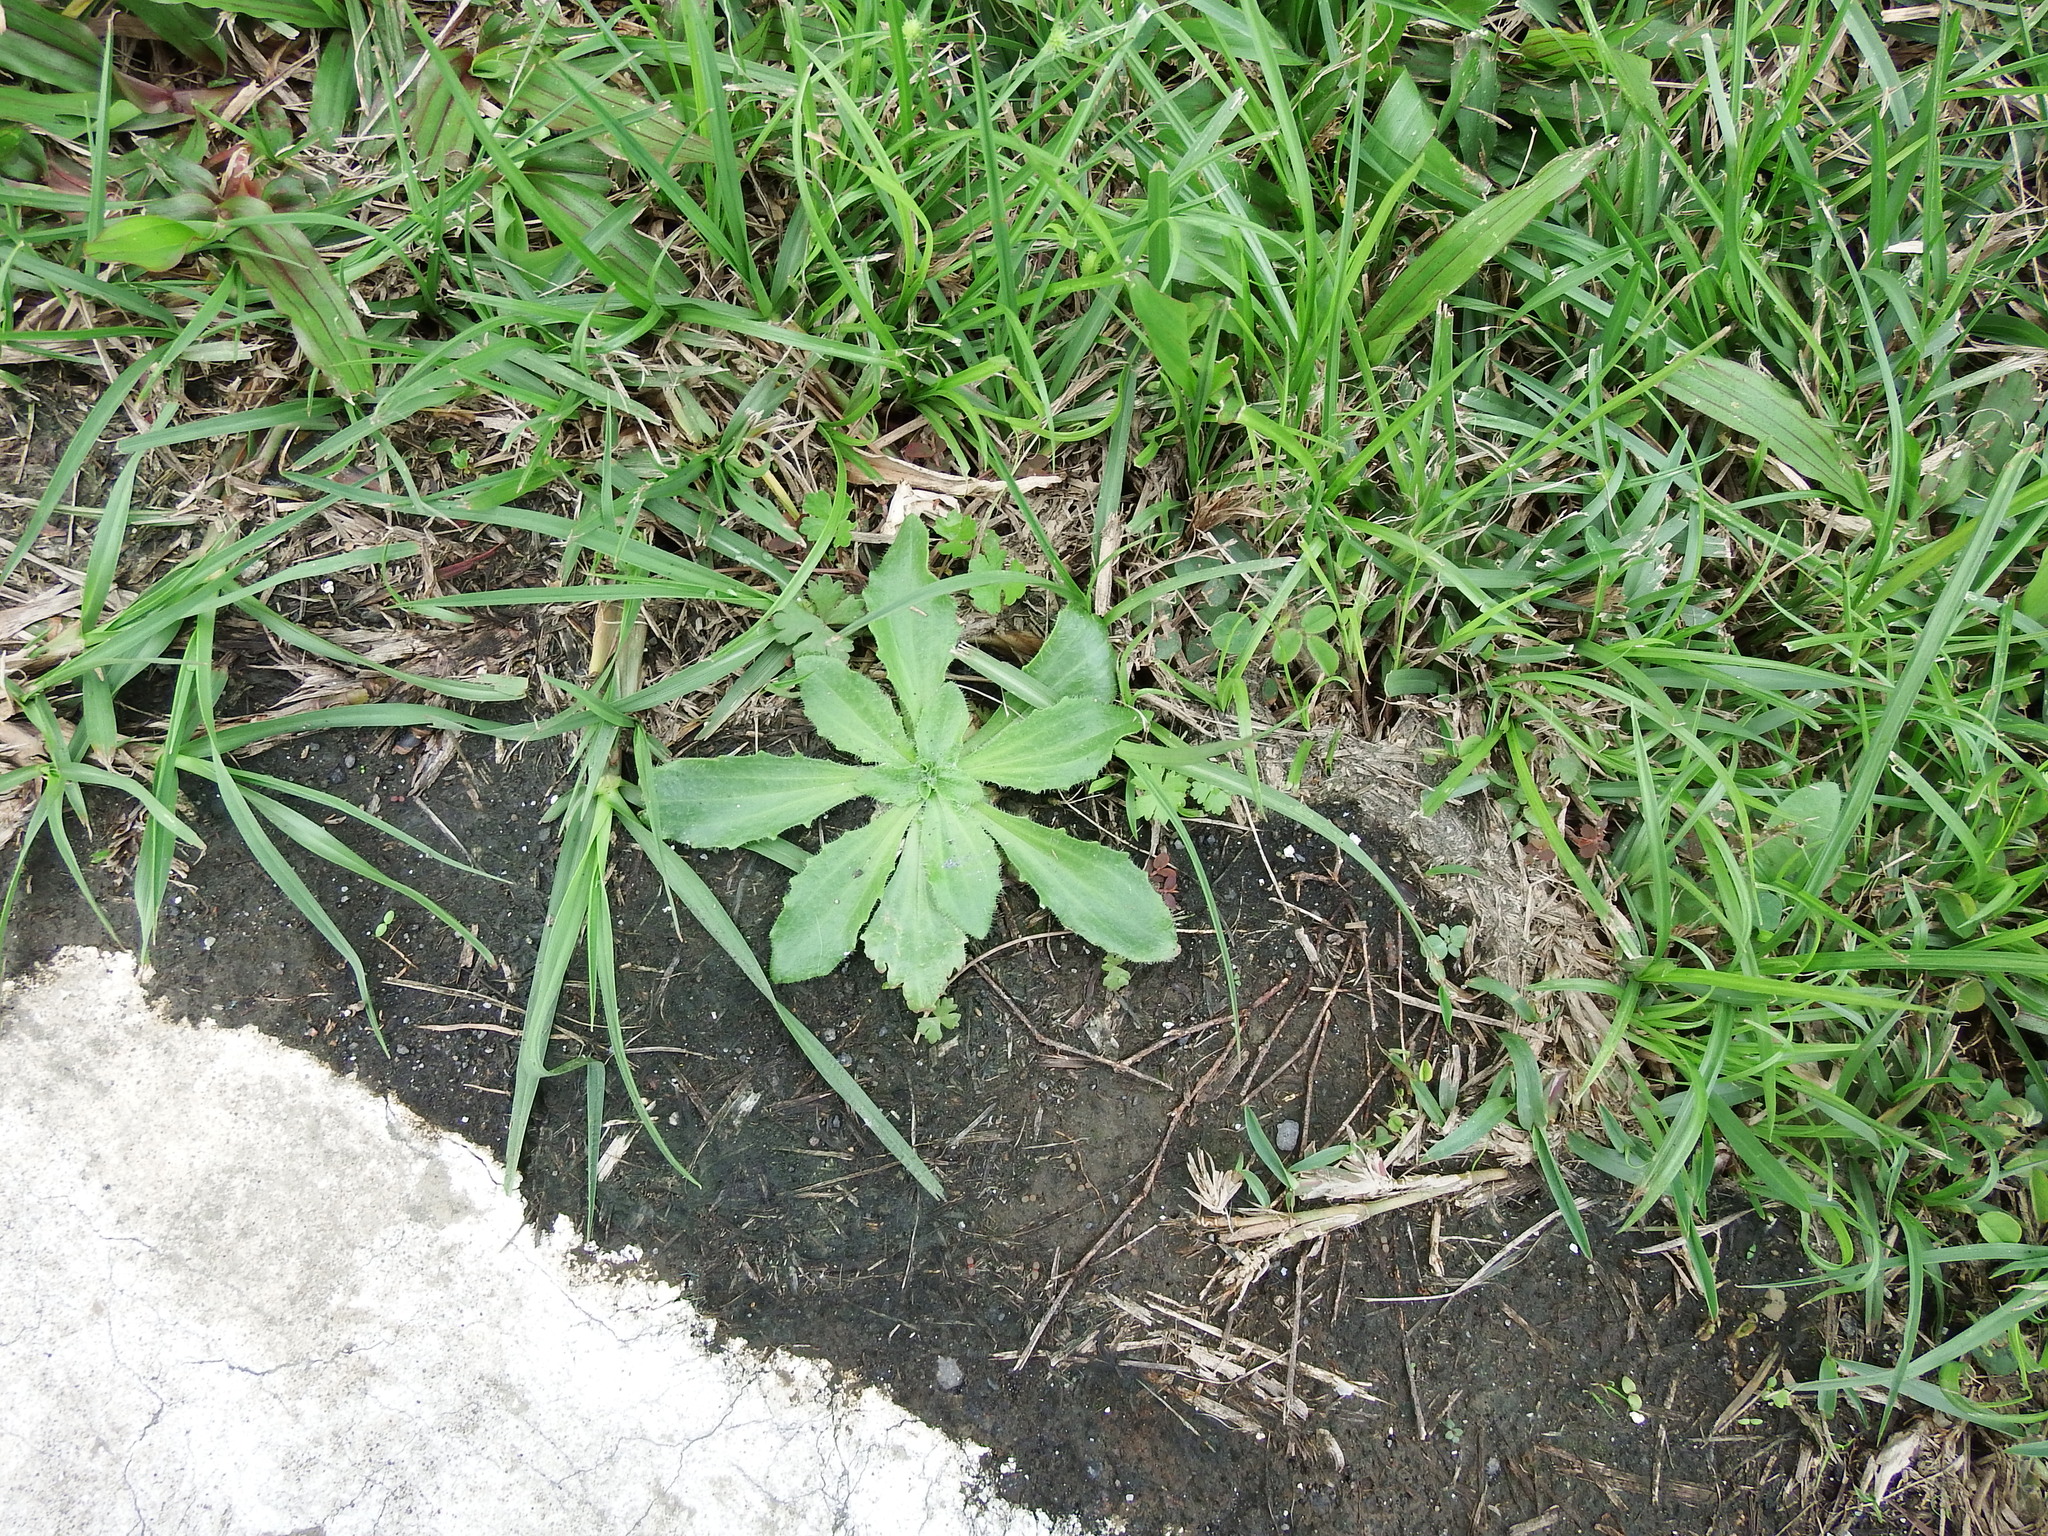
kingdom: Plantae
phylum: Tracheophyta
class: Magnoliopsida
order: Lamiales
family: Plantaginaceae
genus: Plantago
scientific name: Plantago virginica
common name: Hoary plantain
